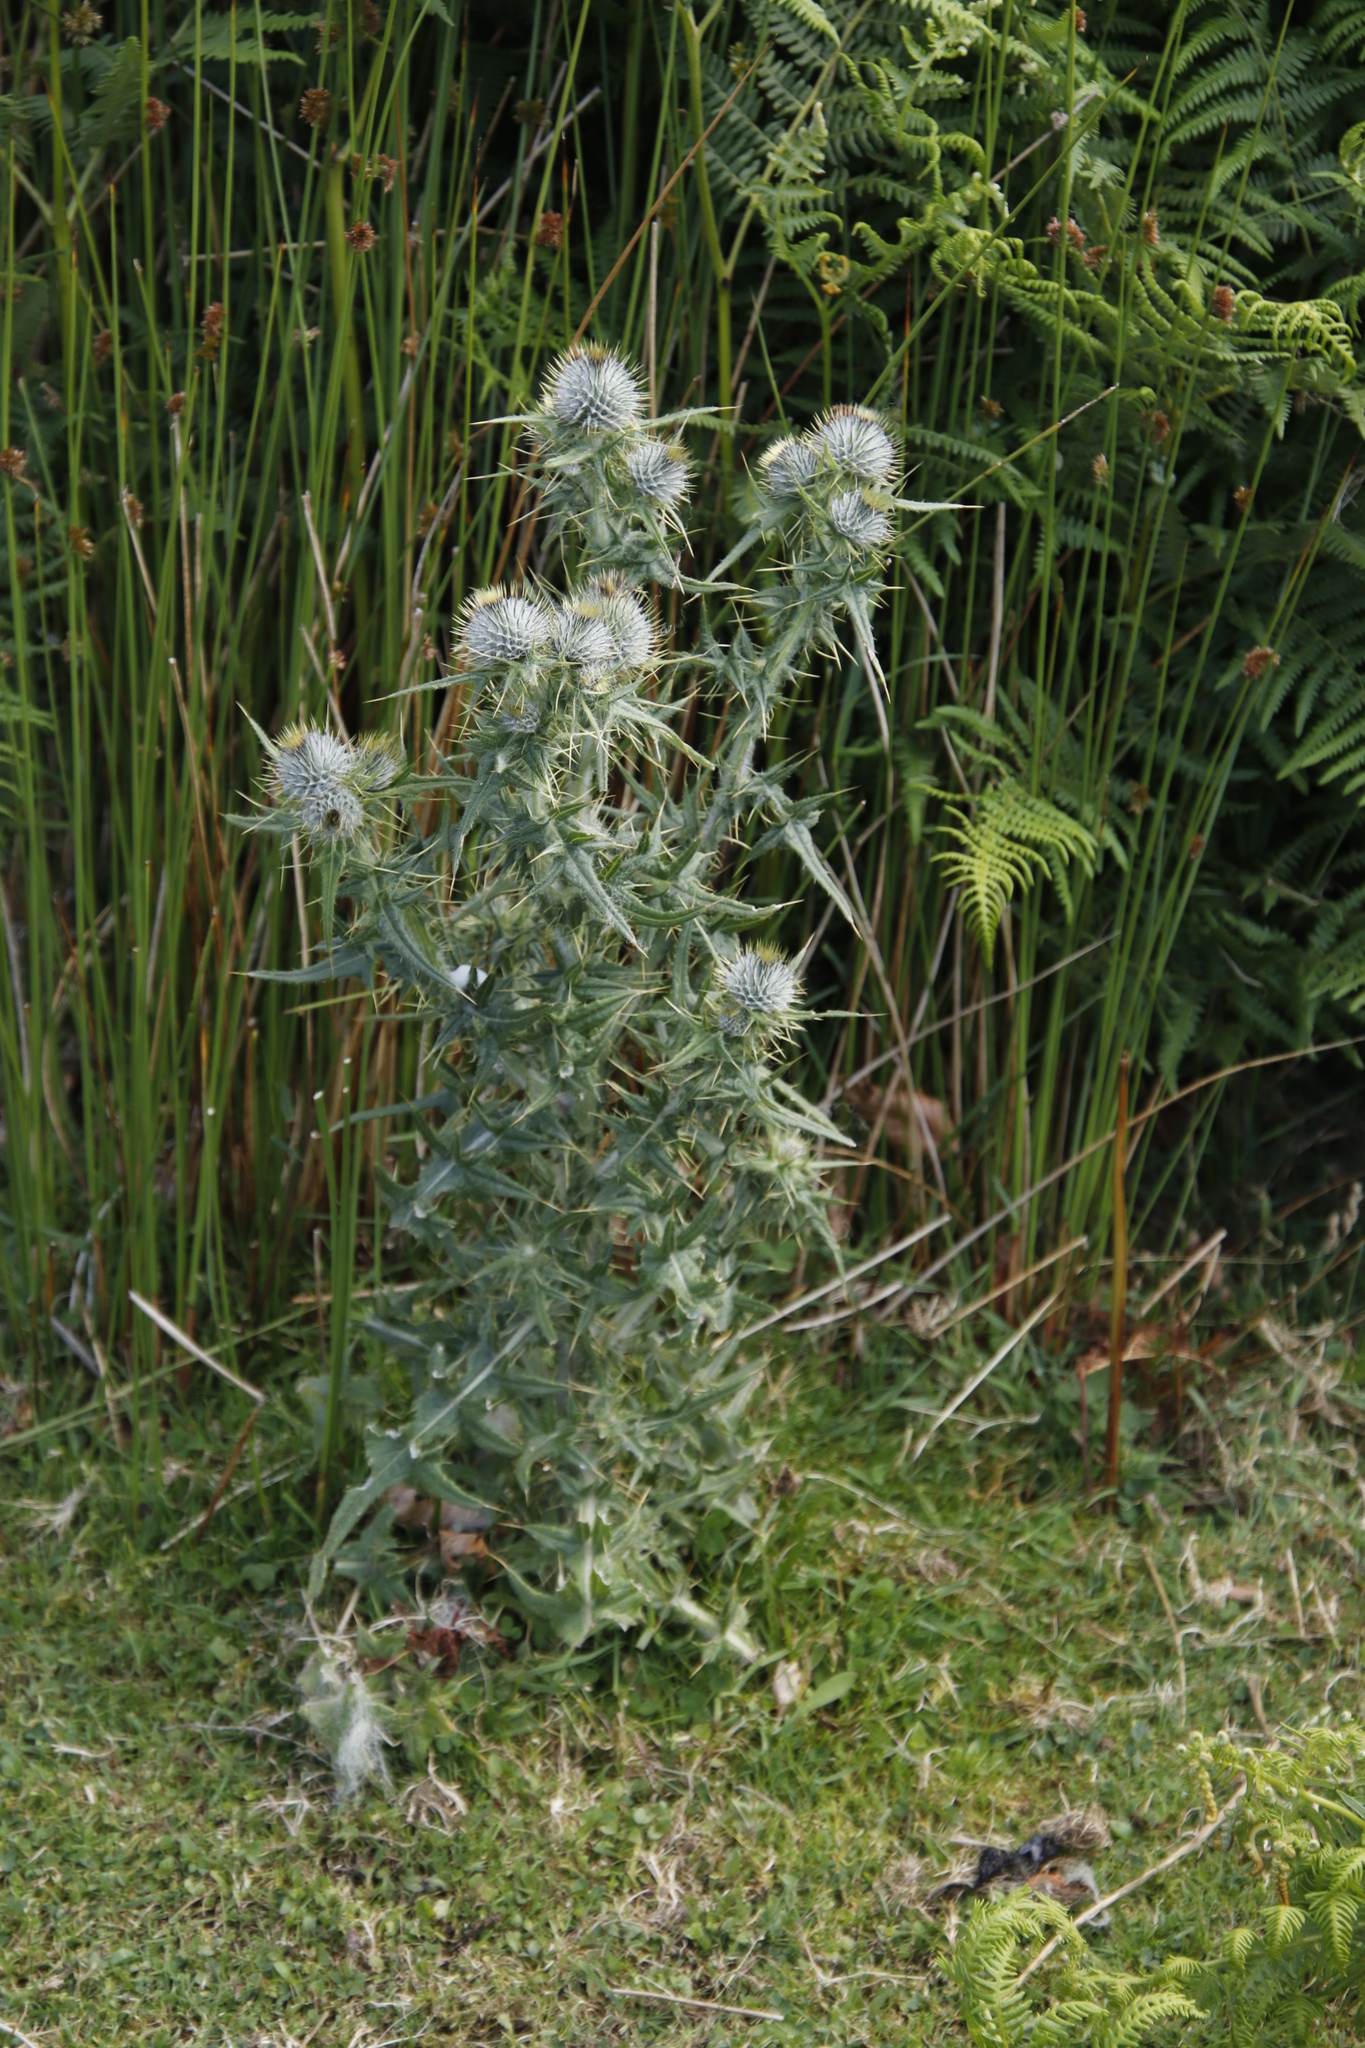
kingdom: Plantae
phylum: Tracheophyta
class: Magnoliopsida
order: Asterales
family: Asteraceae
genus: Cirsium
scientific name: Cirsium vulgare
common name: Bull thistle
